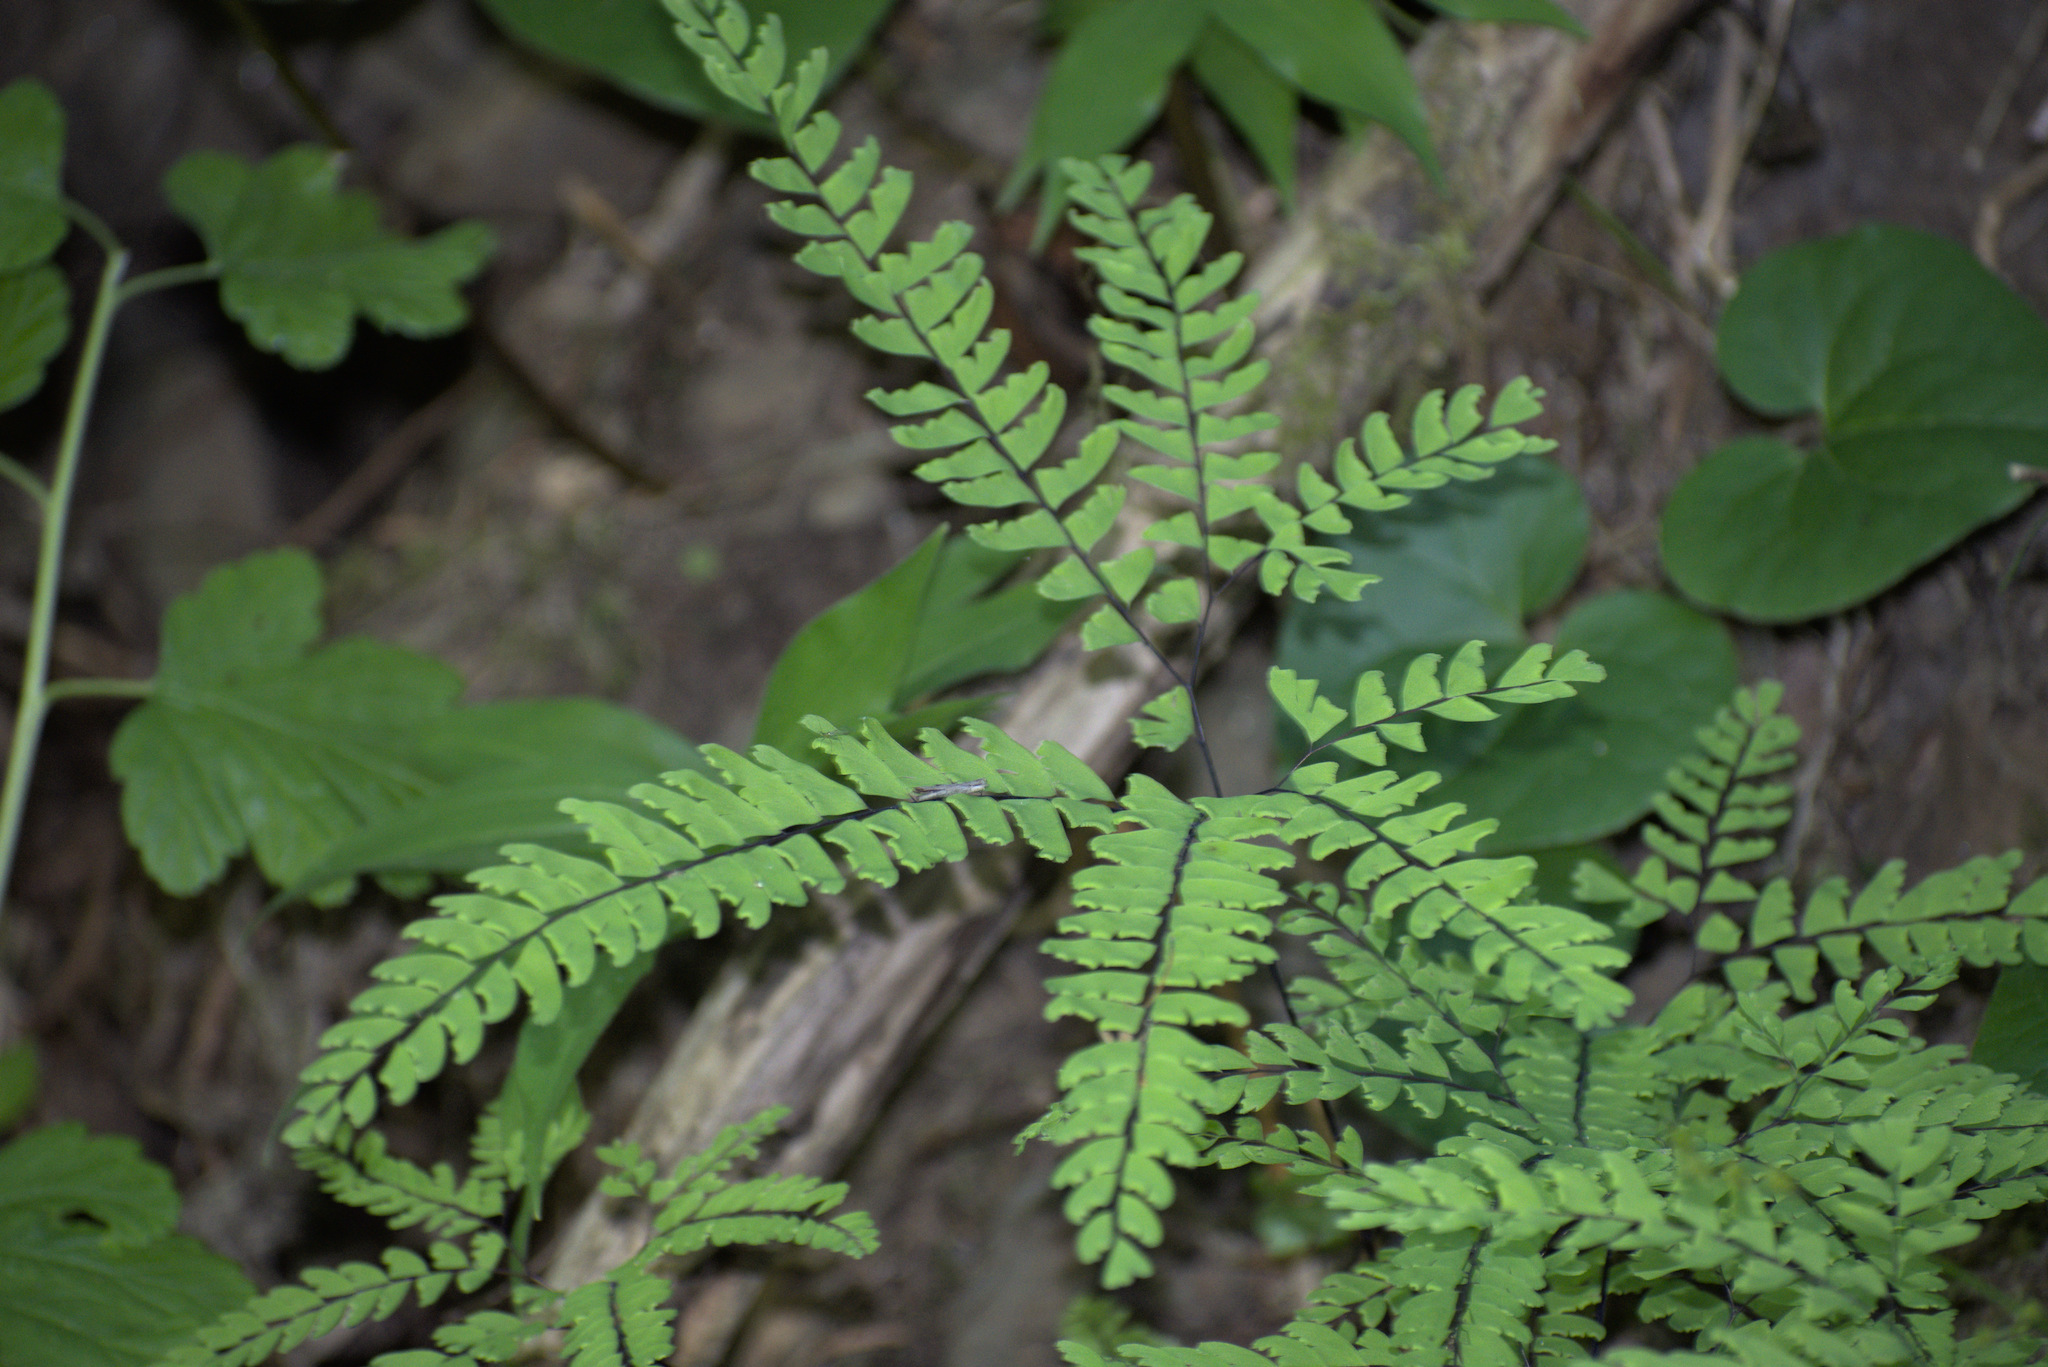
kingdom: Plantae
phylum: Tracheophyta
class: Polypodiopsida
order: Polypodiales
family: Pteridaceae
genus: Adiantum
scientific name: Adiantum aleuticum
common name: Aleutian maidenhair fern
